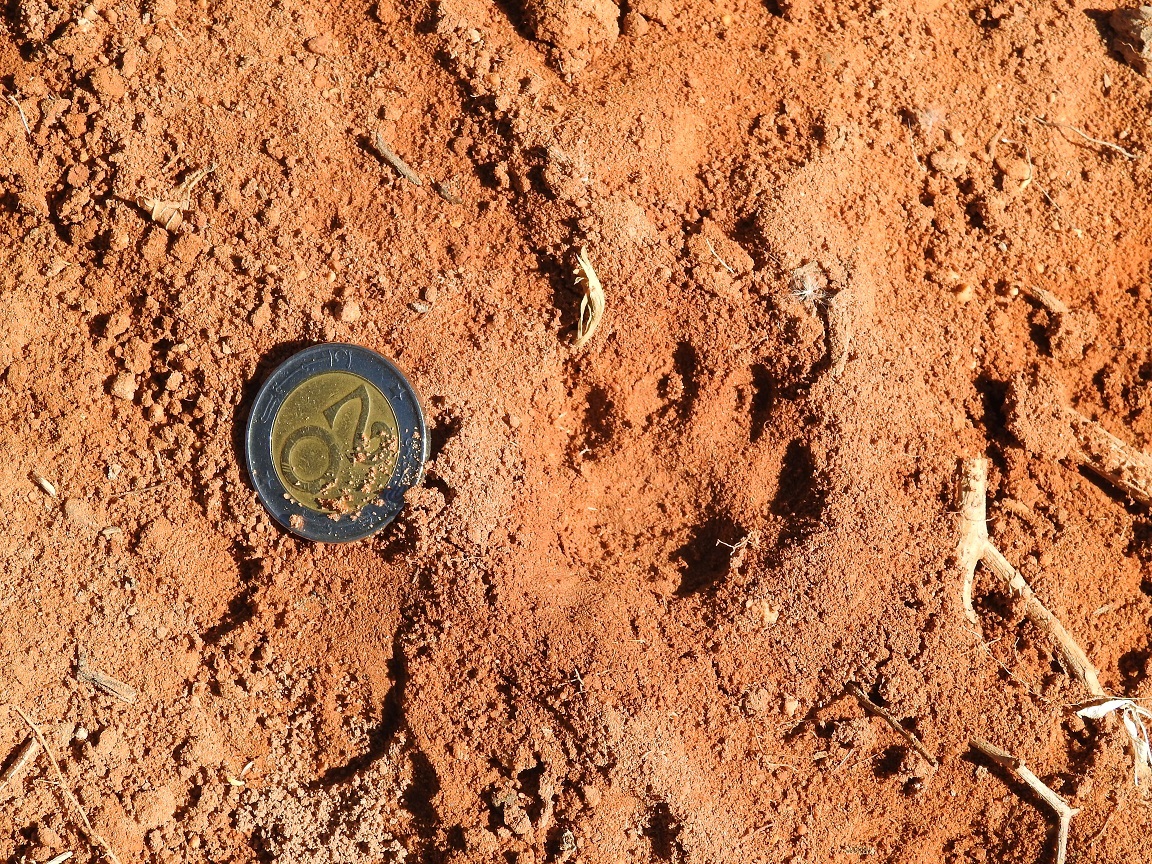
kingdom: Animalia
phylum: Chordata
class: Mammalia
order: Carnivora
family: Felidae
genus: Felis
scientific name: Felis catus
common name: Domestic cat
